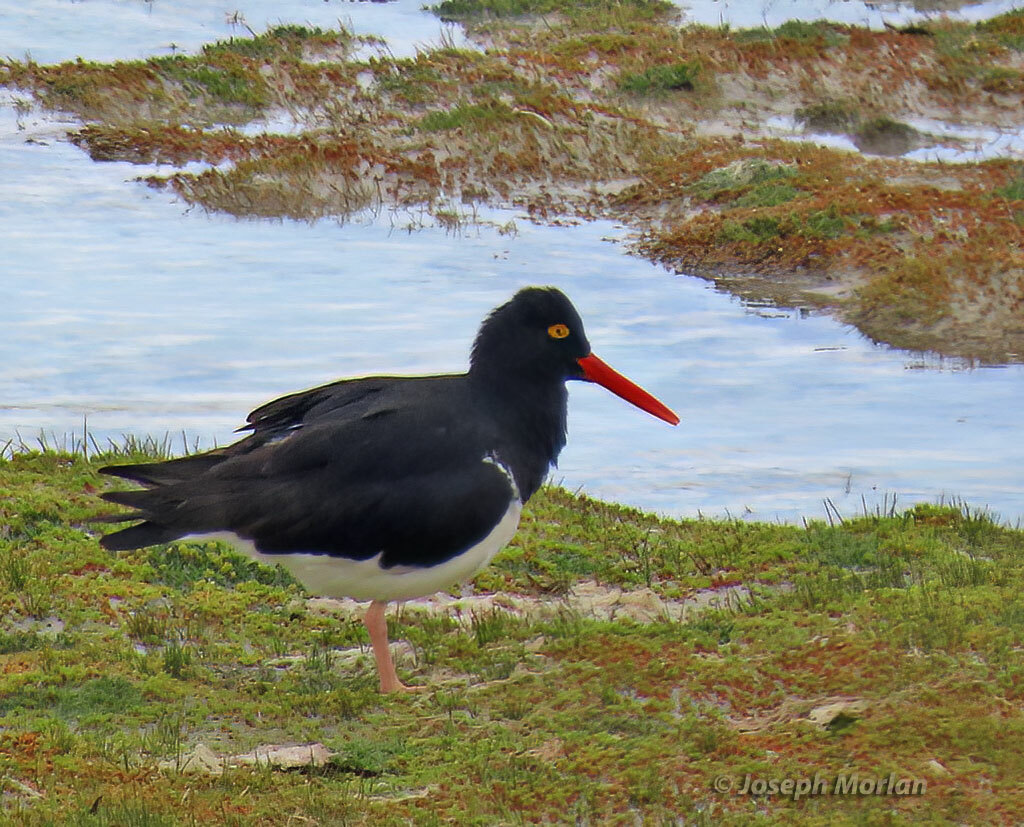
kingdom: Animalia
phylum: Chordata
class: Aves
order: Charadriiformes
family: Haematopodidae
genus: Haematopus
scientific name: Haematopus leucopodus
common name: Magellanic oystercatcher
